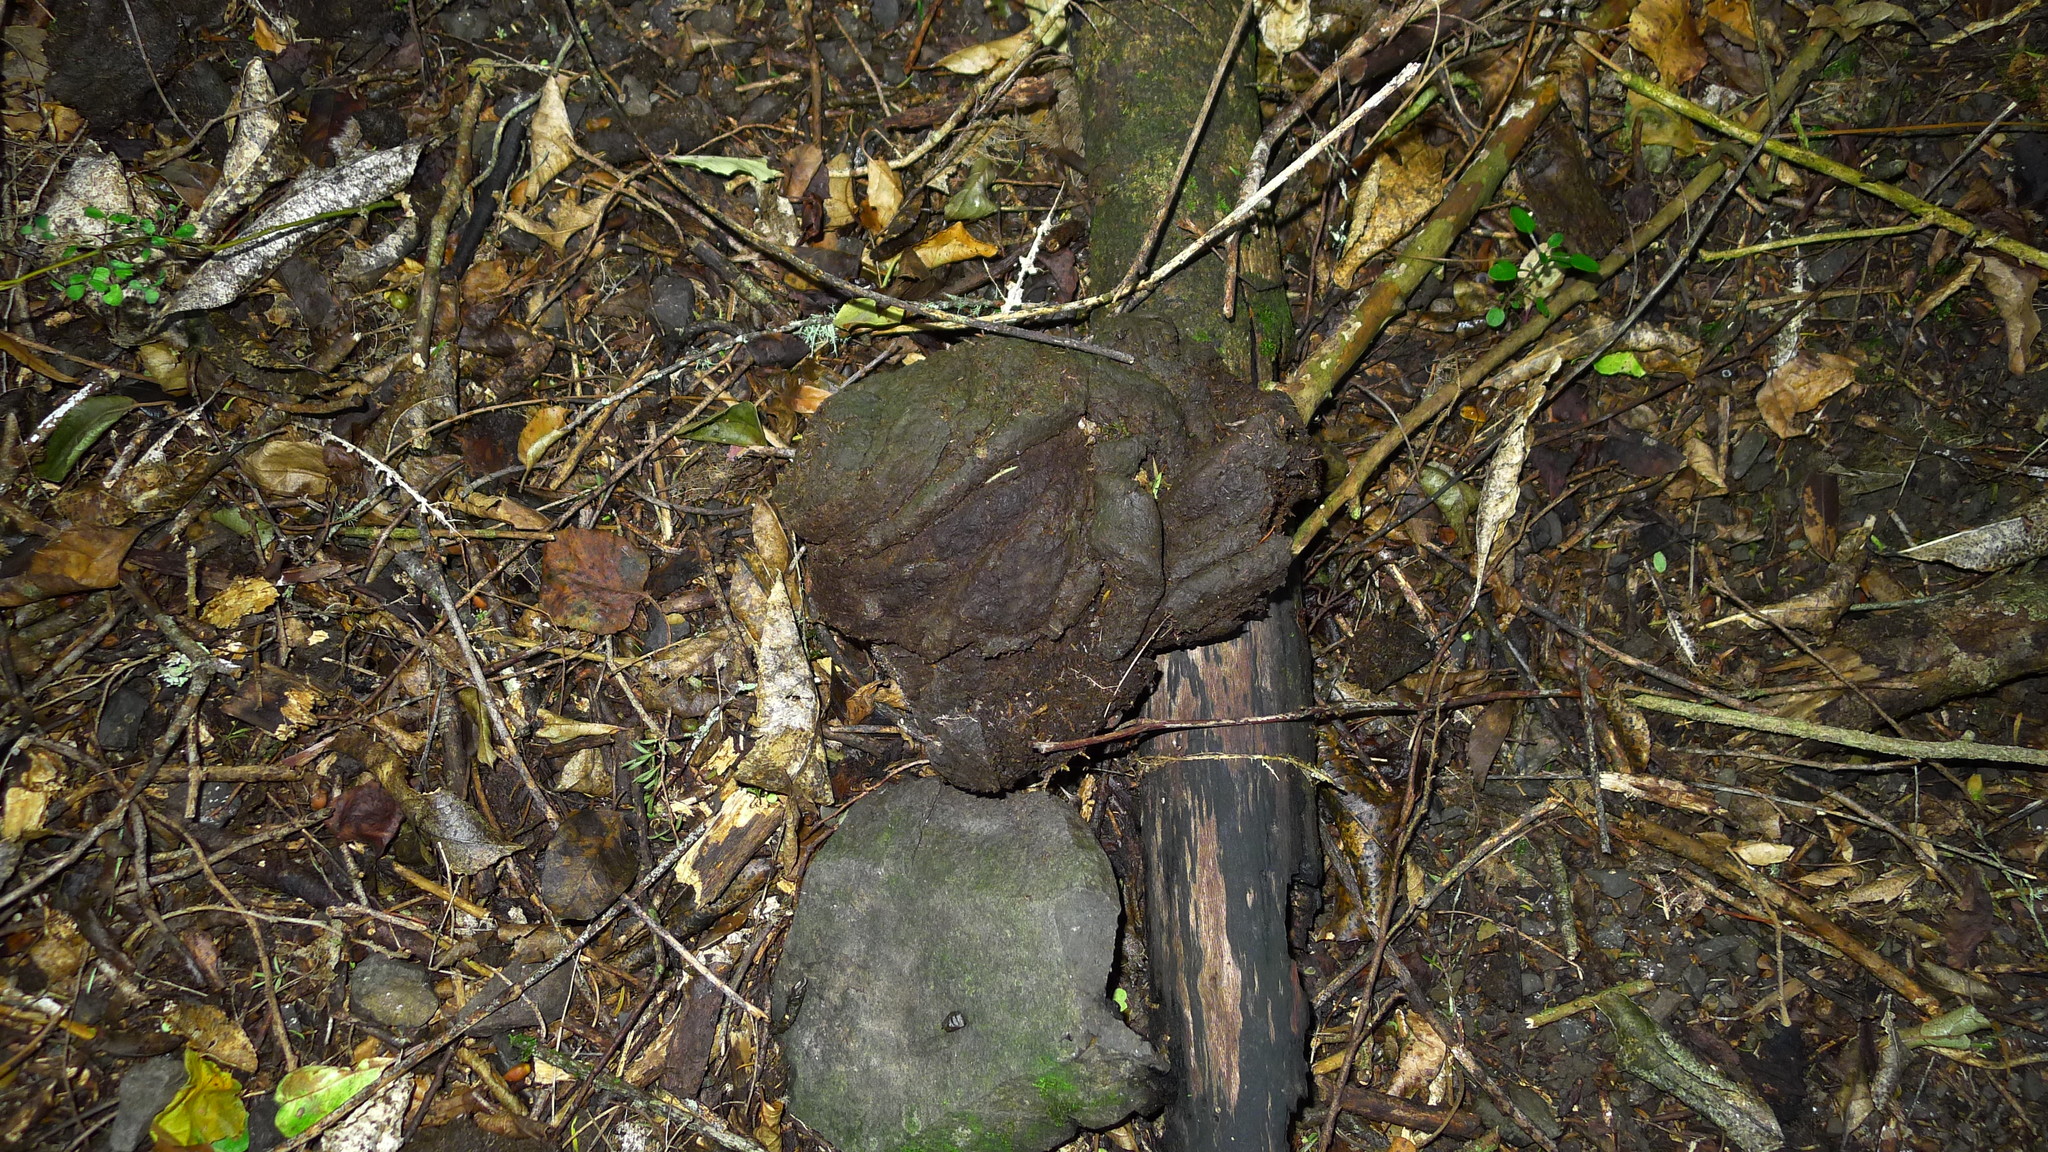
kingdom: Animalia
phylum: Chordata
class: Mammalia
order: Artiodactyla
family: Bovidae
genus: Bos
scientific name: Bos taurus
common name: Domesticated cattle
